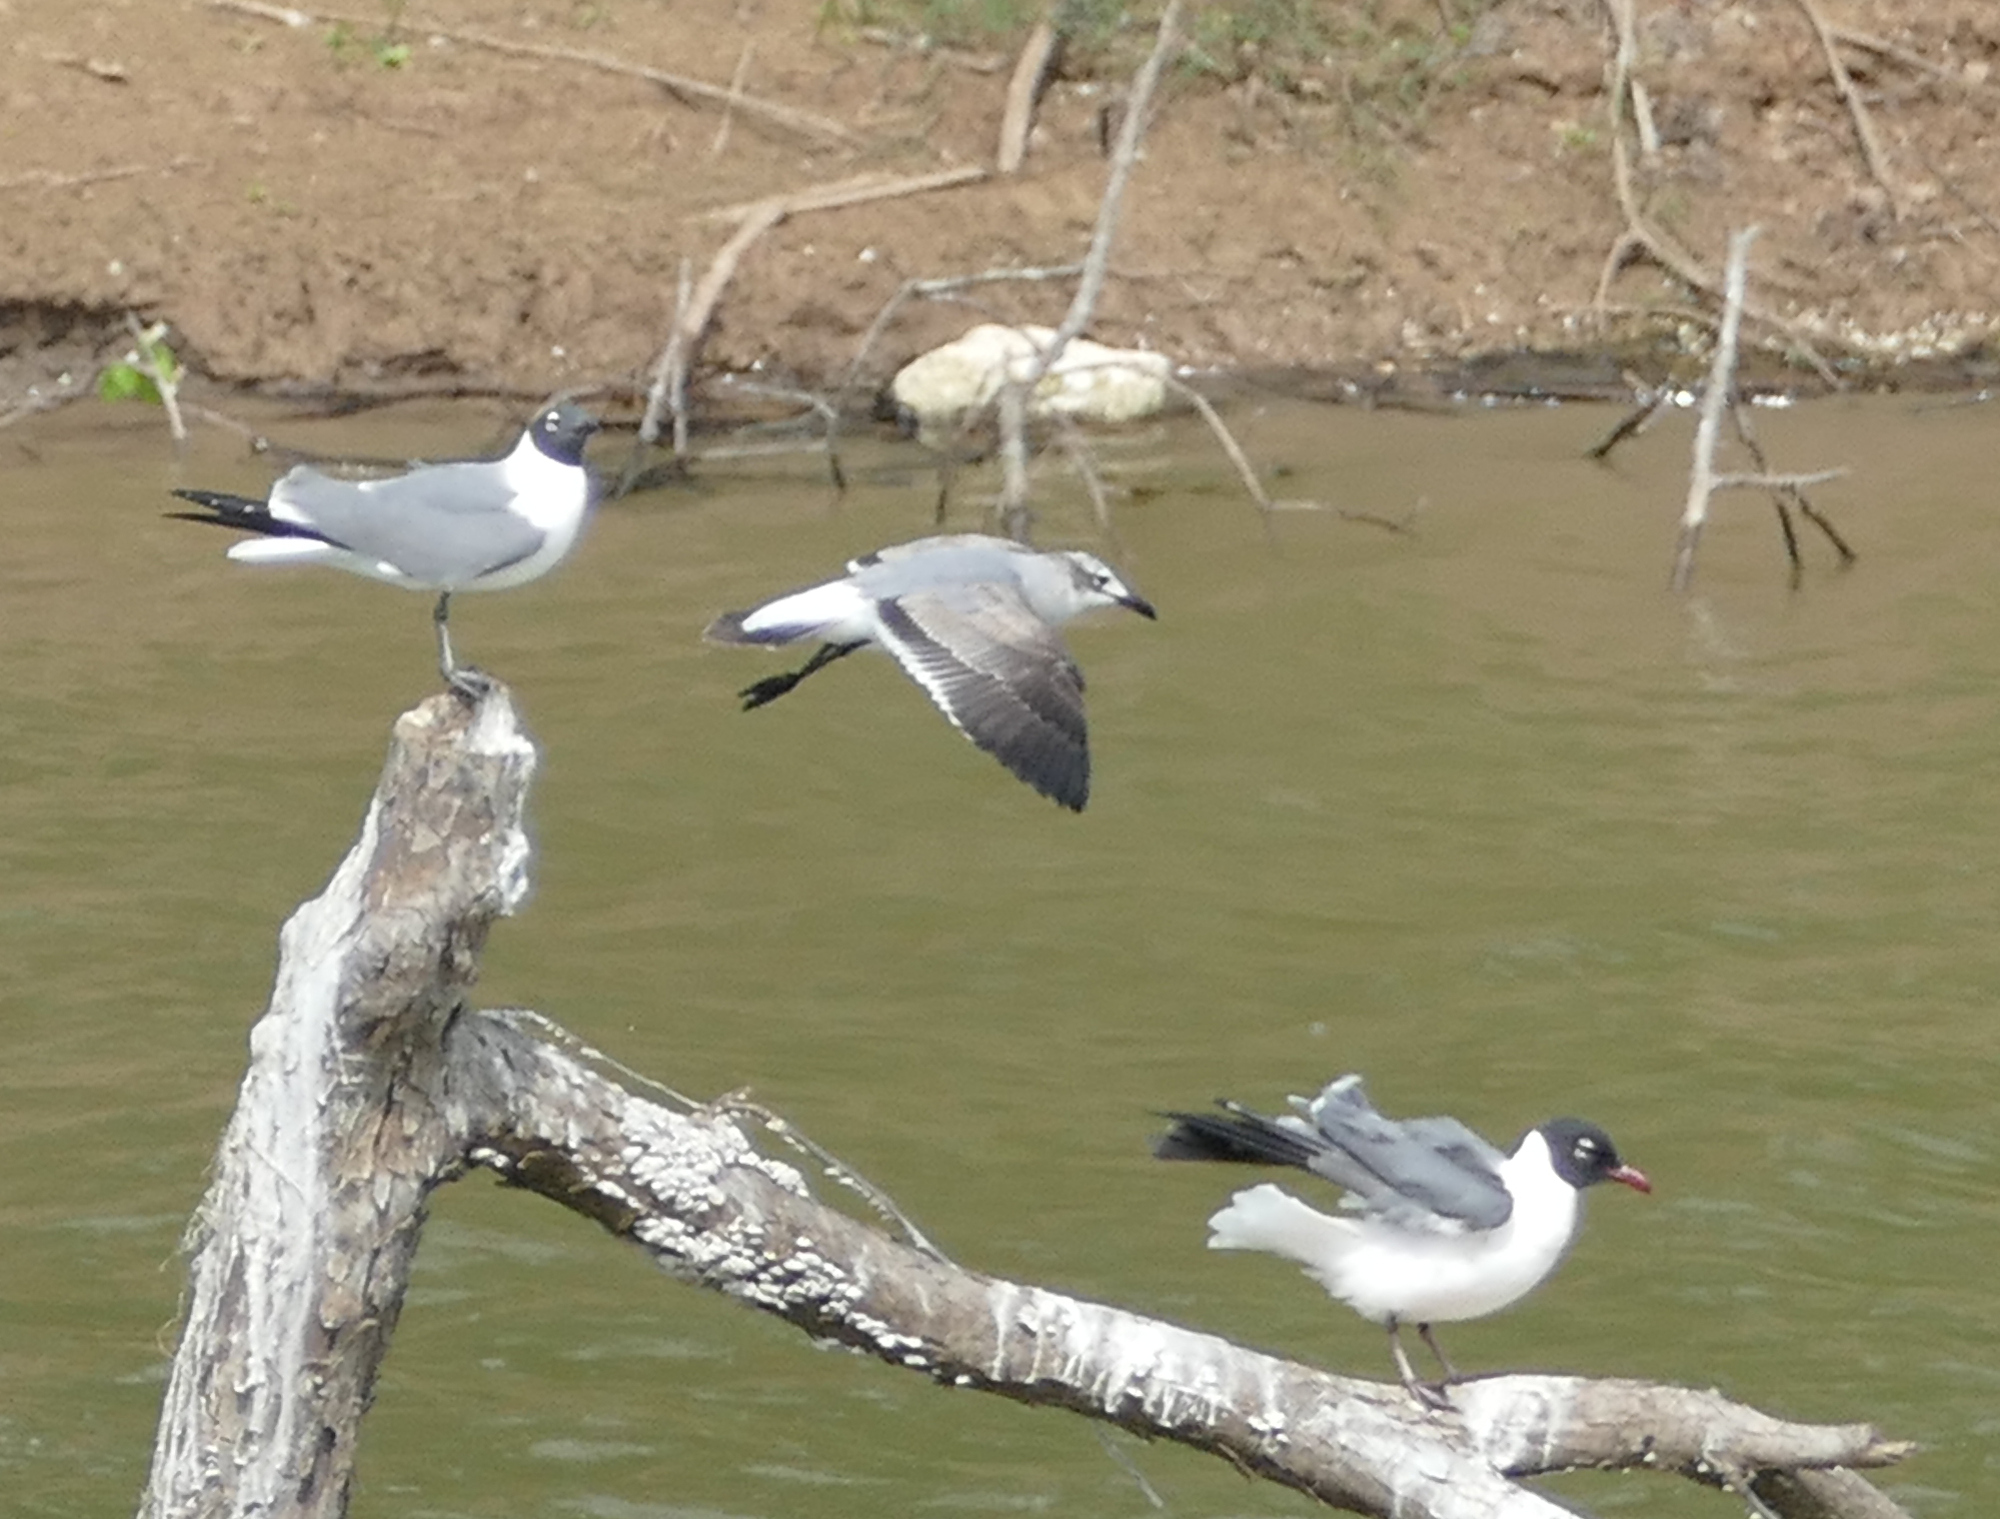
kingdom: Animalia
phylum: Chordata
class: Aves
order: Charadriiformes
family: Laridae
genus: Leucophaeus
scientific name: Leucophaeus atricilla
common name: Laughing gull
